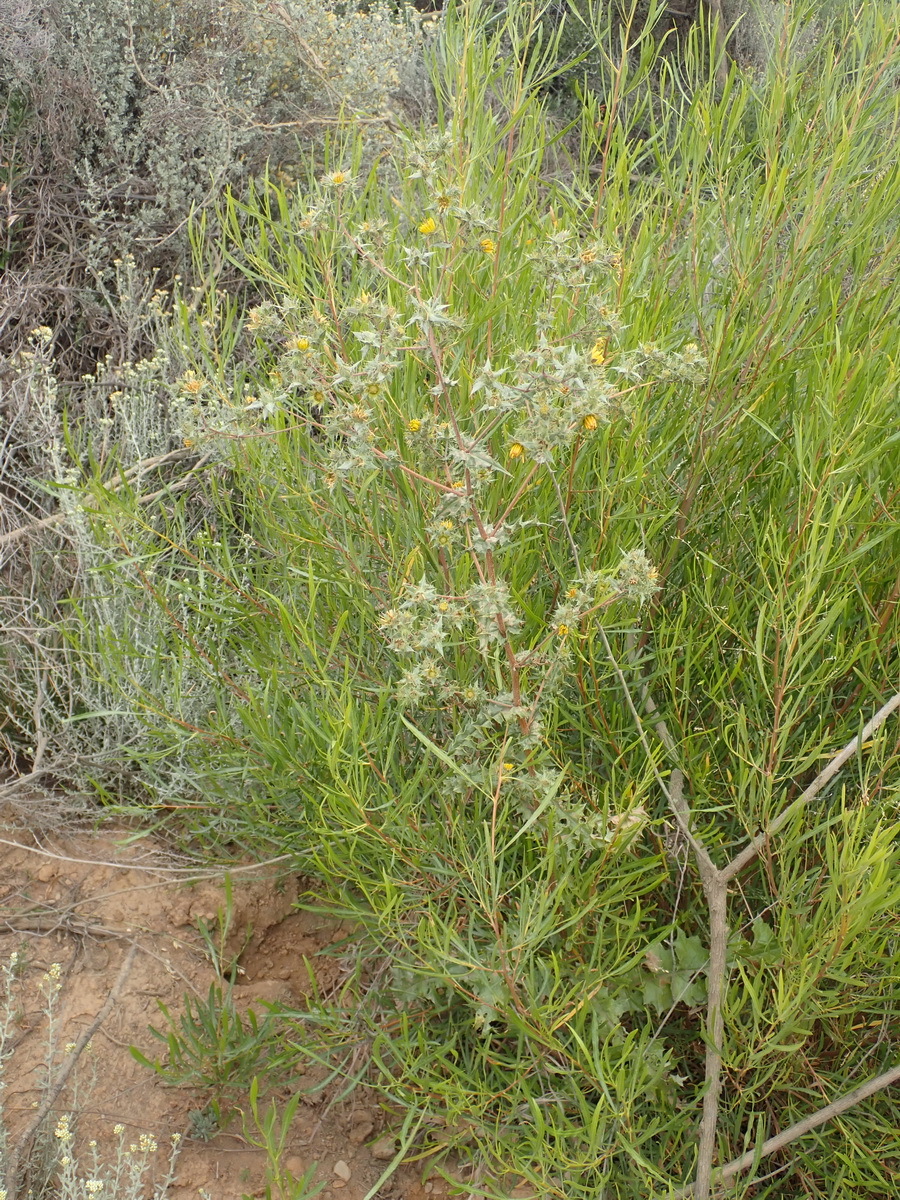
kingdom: Plantae
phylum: Tracheophyta
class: Magnoliopsida
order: Asterales
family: Asteraceae
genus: Berkheya
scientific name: Berkheya onobromoides
